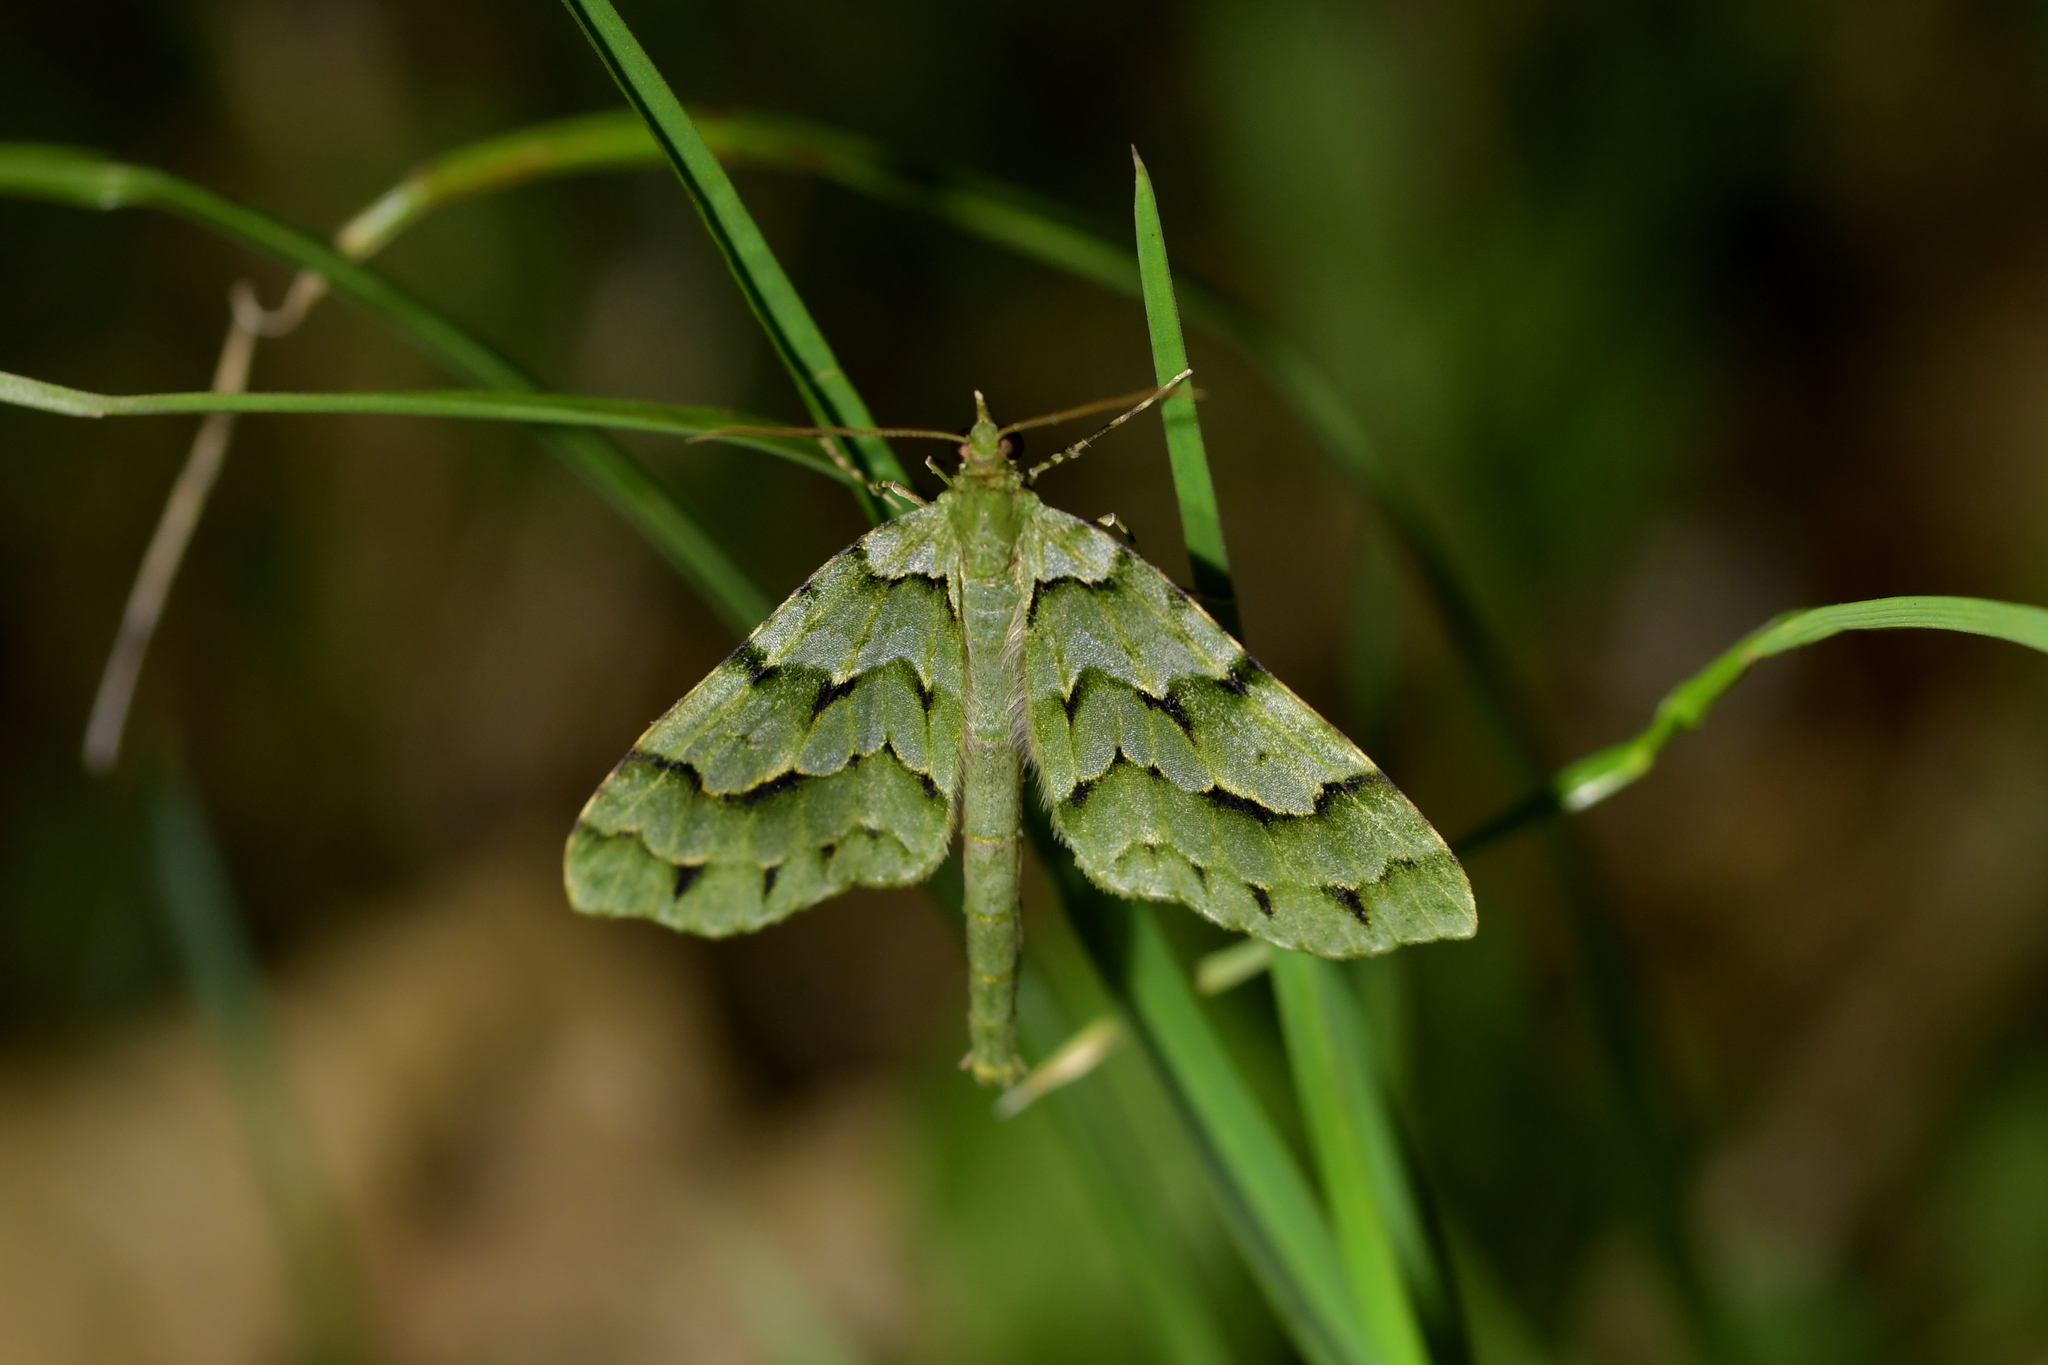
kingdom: Animalia
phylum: Arthropoda
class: Insecta
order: Lepidoptera
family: Geometridae
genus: Tatosoma
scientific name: Tatosoma lestevata
